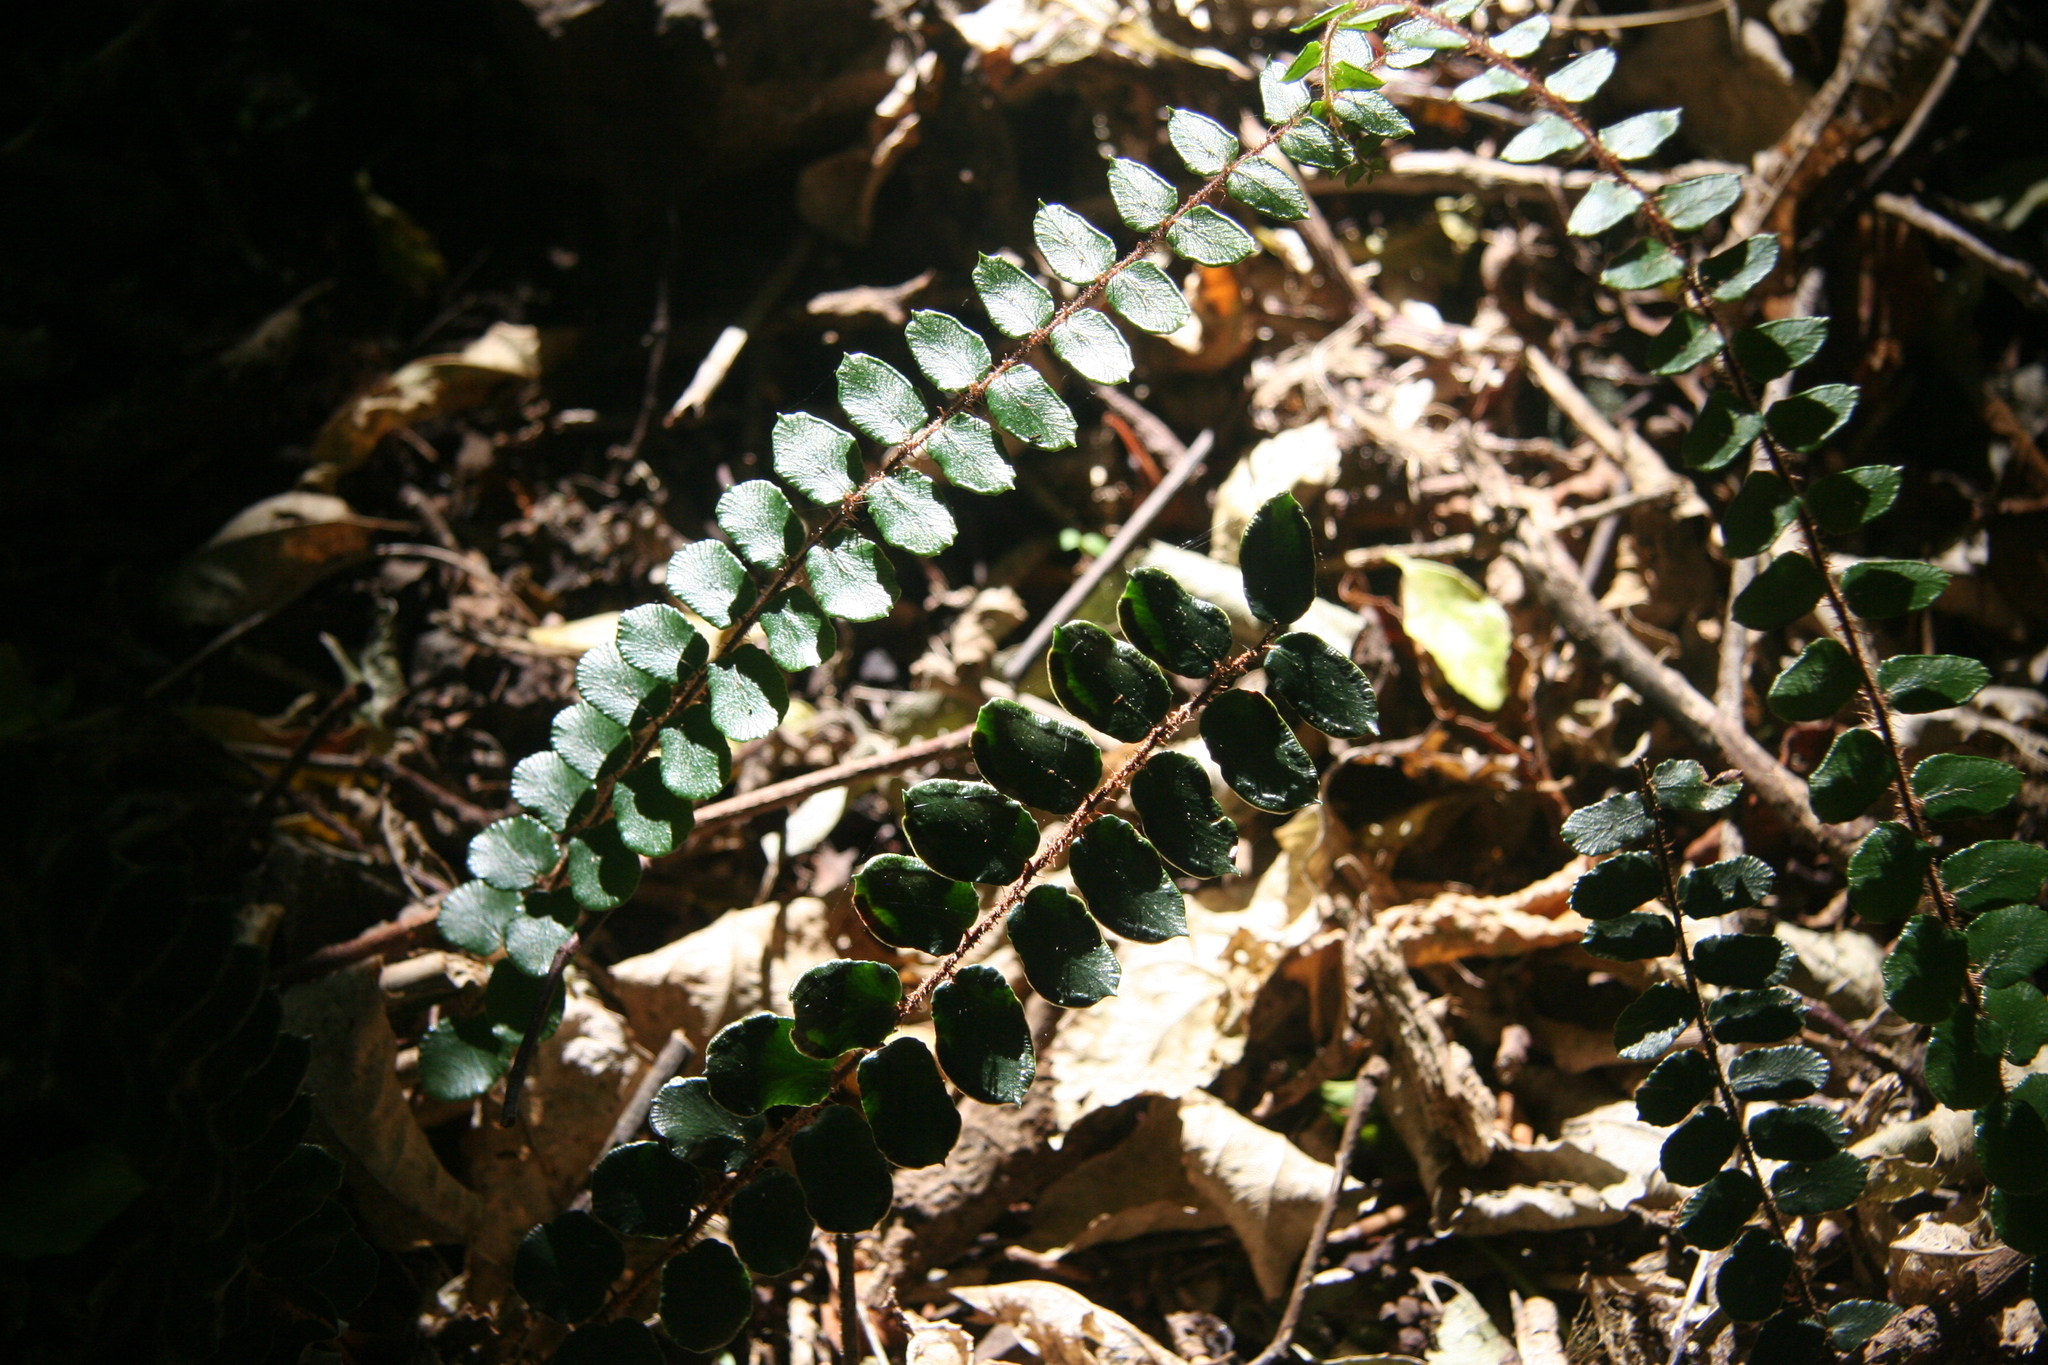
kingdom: Plantae
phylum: Tracheophyta
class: Polypodiopsida
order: Polypodiales
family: Pteridaceae
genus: Pellaea
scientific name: Pellaea rotundifolia
